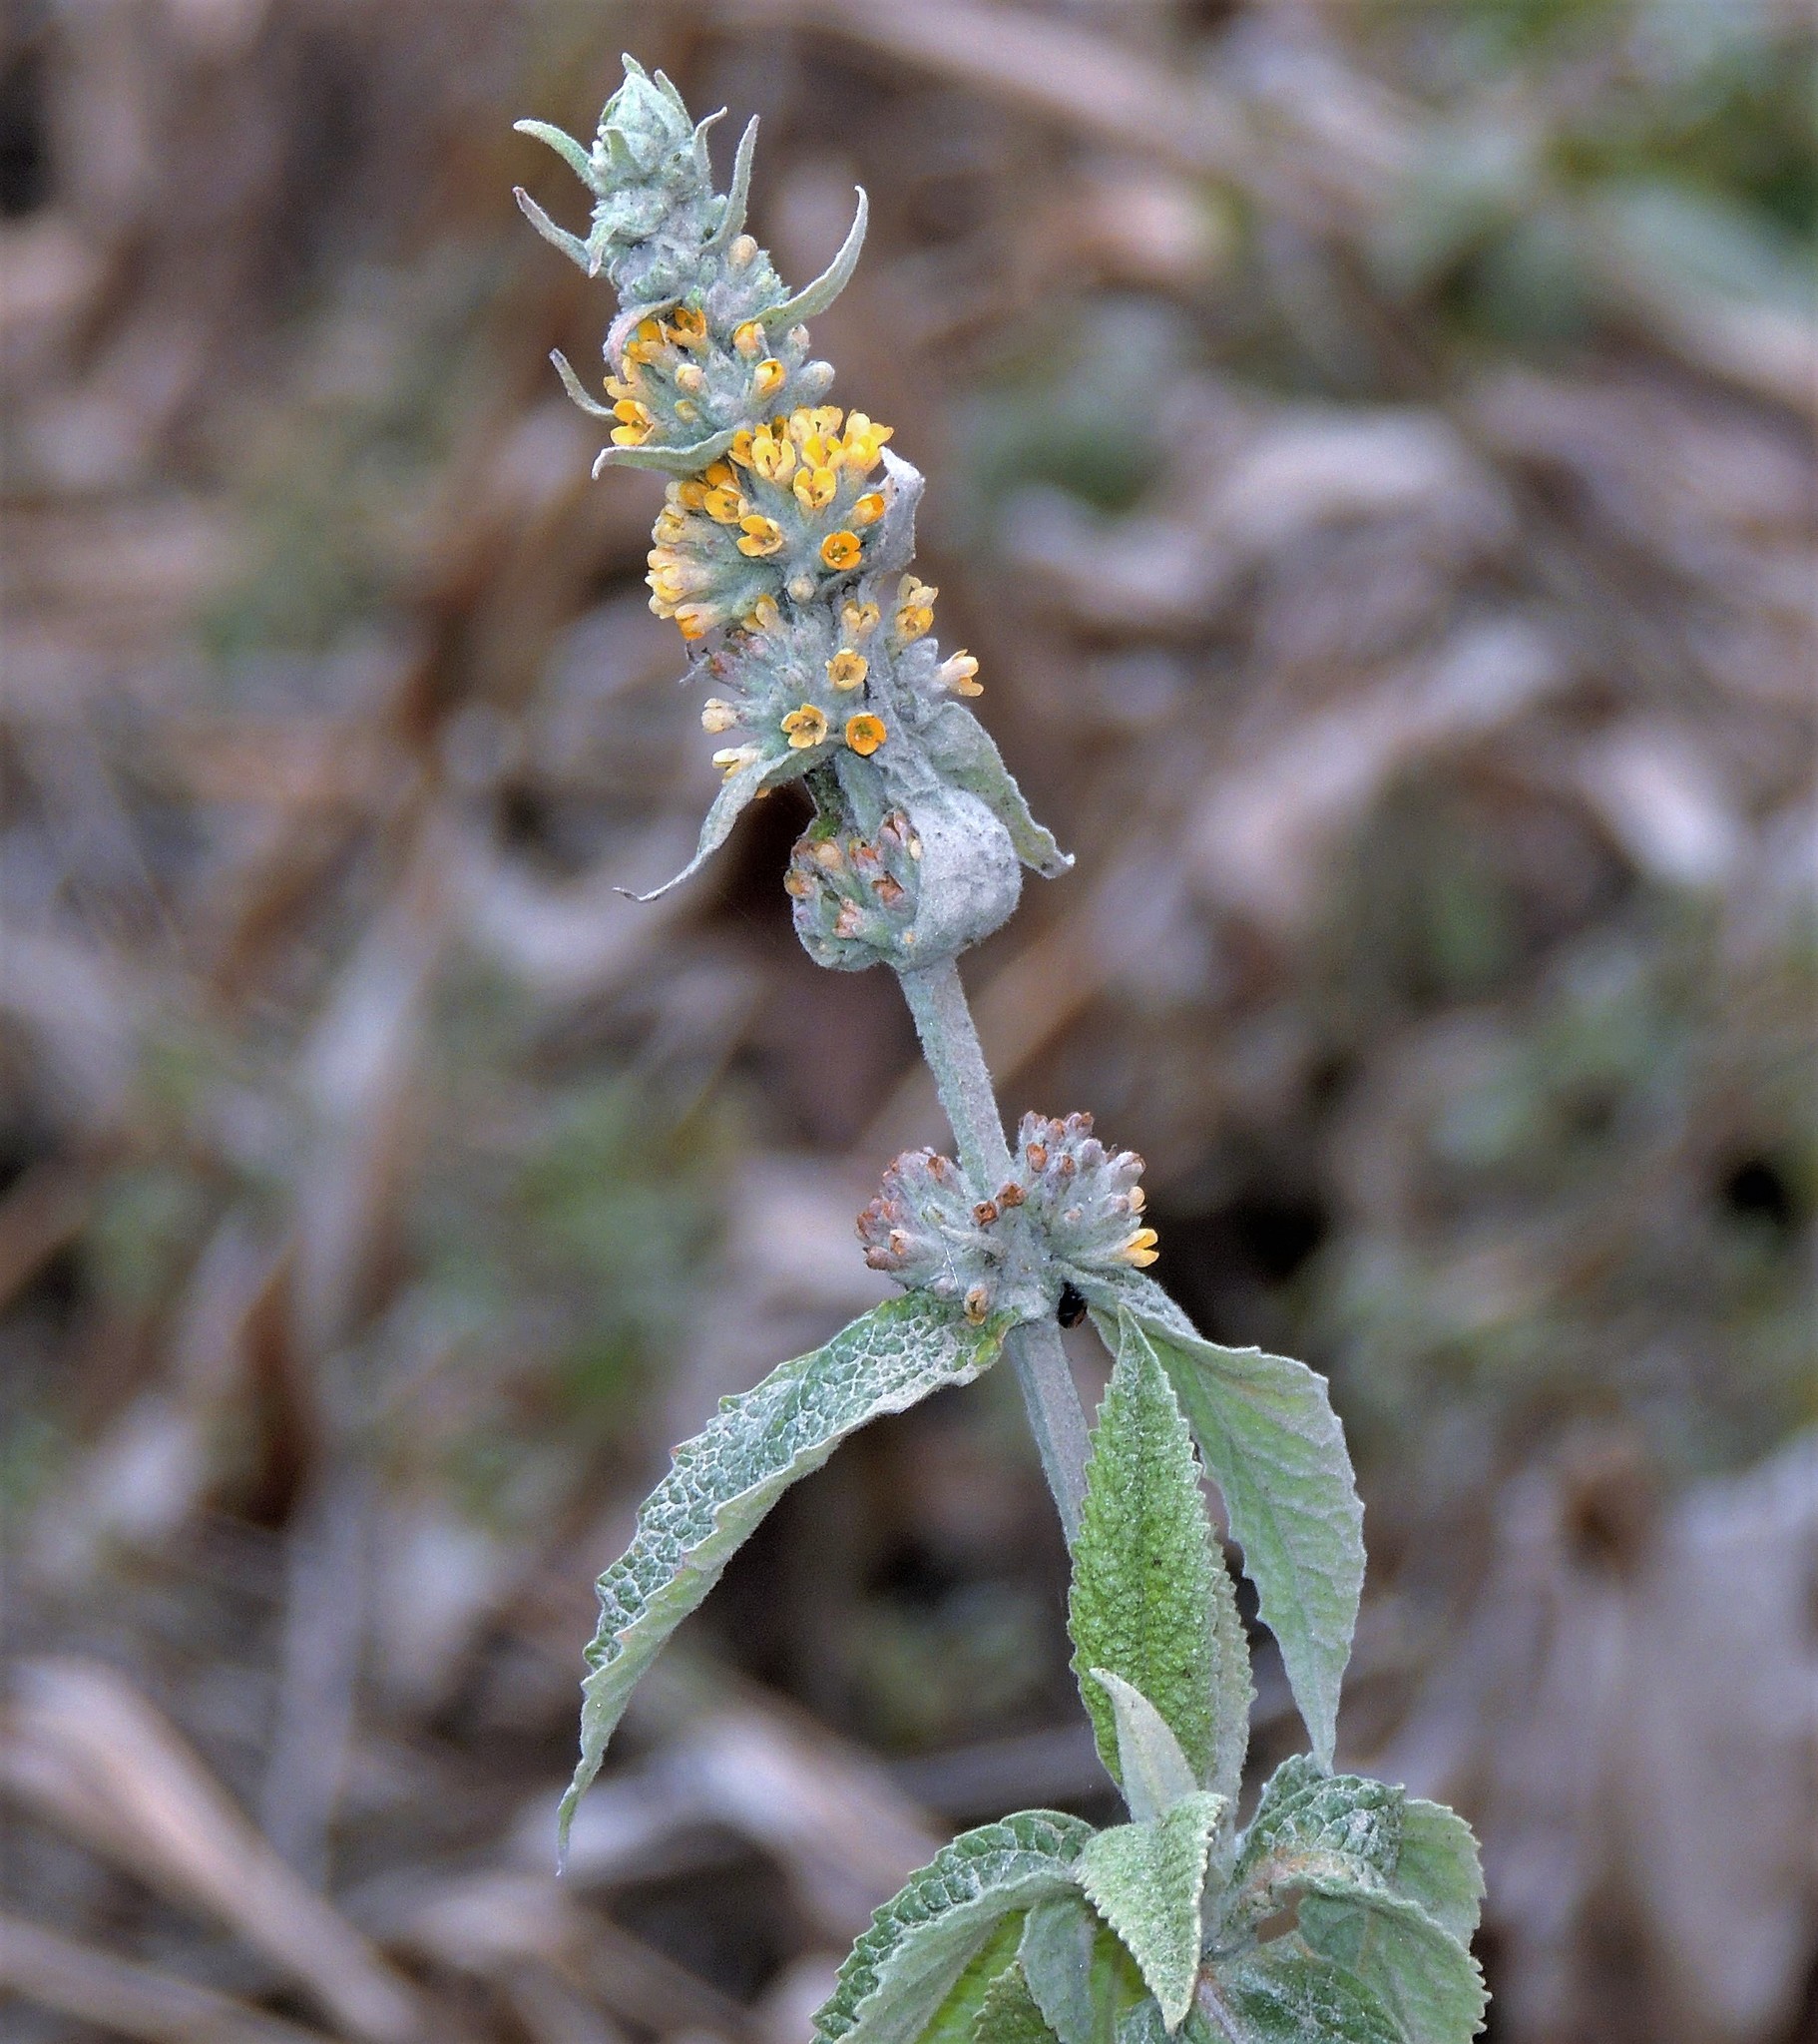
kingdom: Plantae
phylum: Tracheophyta
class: Magnoliopsida
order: Lamiales
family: Scrophulariaceae
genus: Buddleja
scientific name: Buddleja stachyoides
